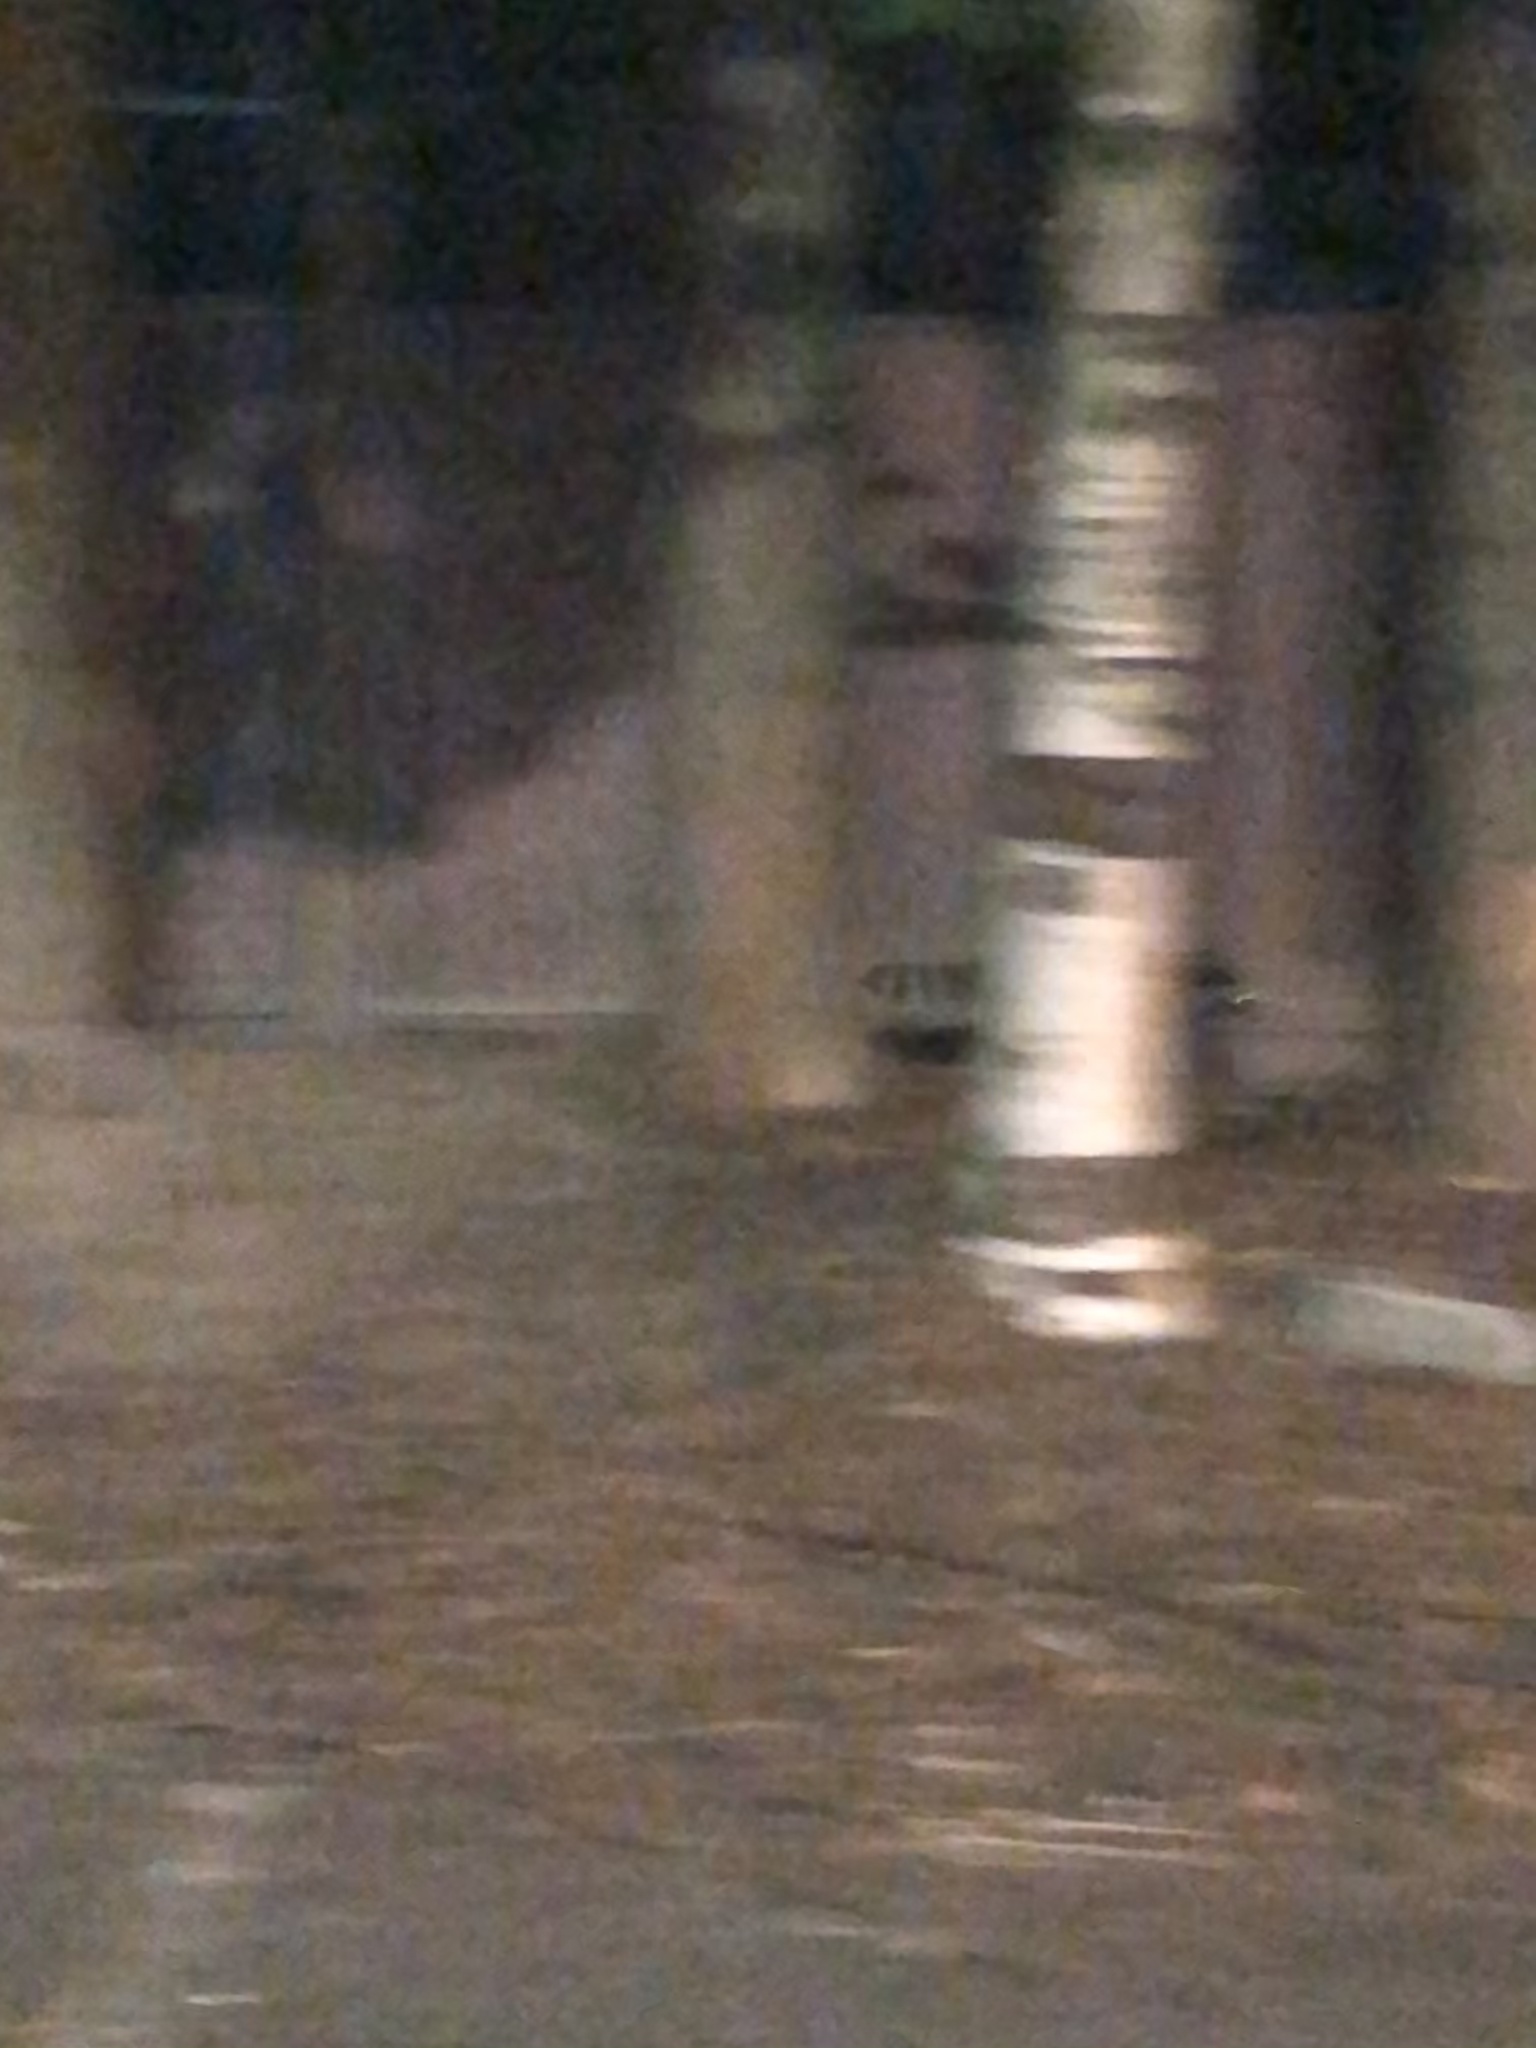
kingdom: Animalia
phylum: Chordata
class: Mammalia
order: Carnivora
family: Procyonidae
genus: Procyon
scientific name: Procyon lotor
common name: Raccoon
